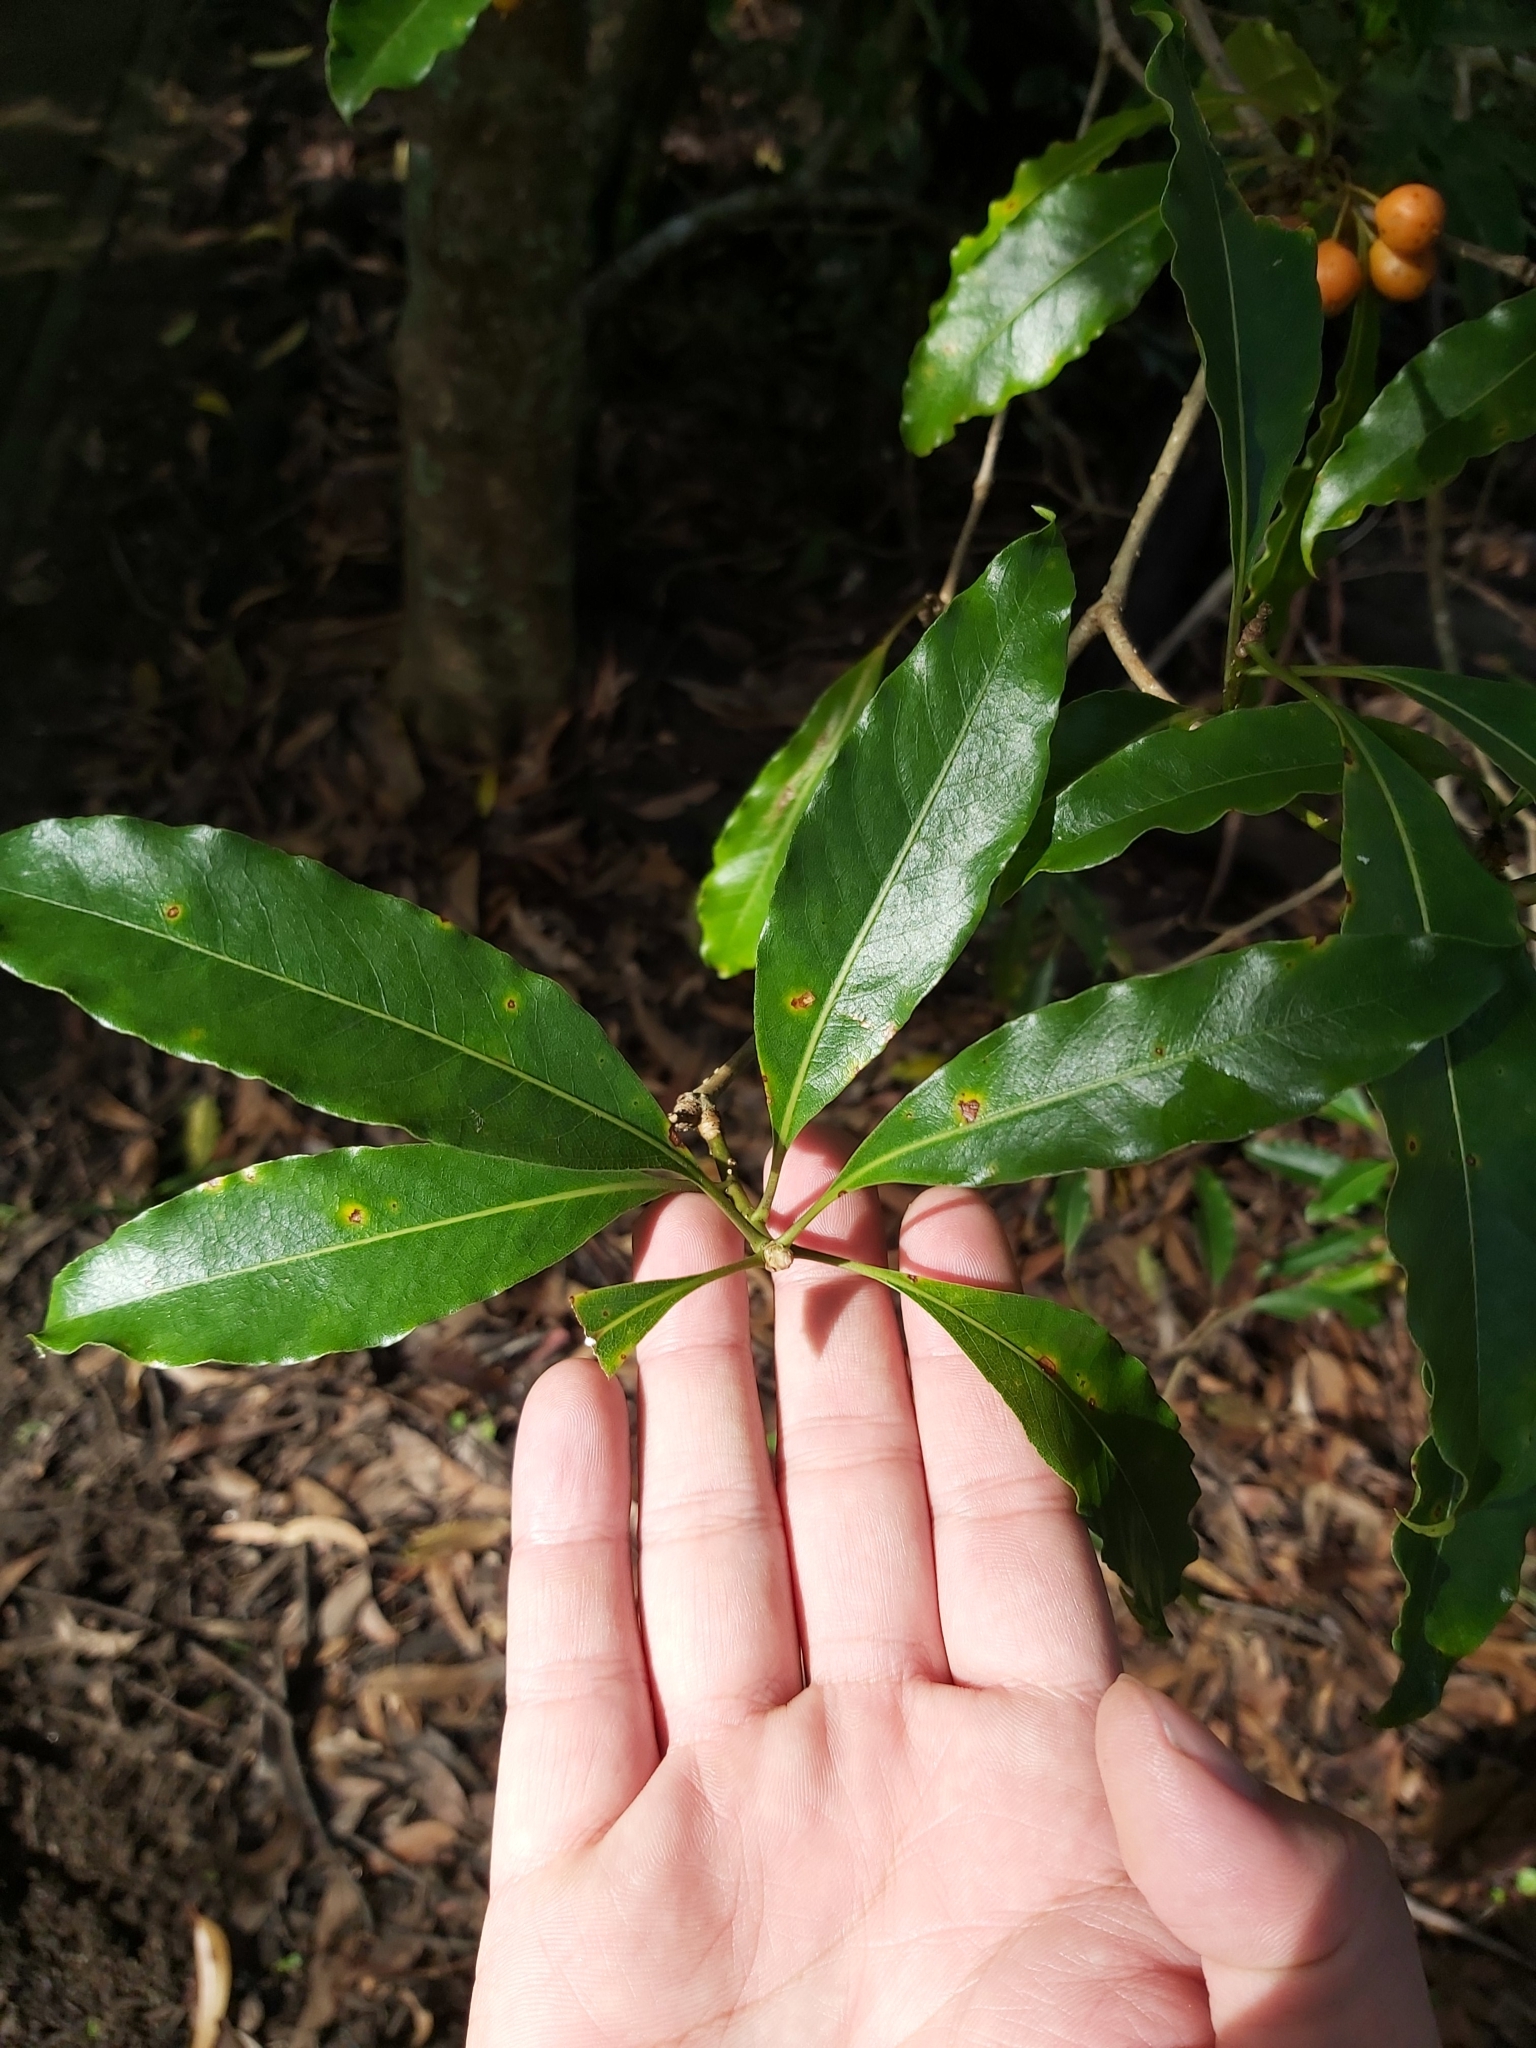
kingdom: Plantae
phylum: Tracheophyta
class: Magnoliopsida
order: Apiales
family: Pittosporaceae
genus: Pittosporum
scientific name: Pittosporum undulatum
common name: Australian cheesewood
